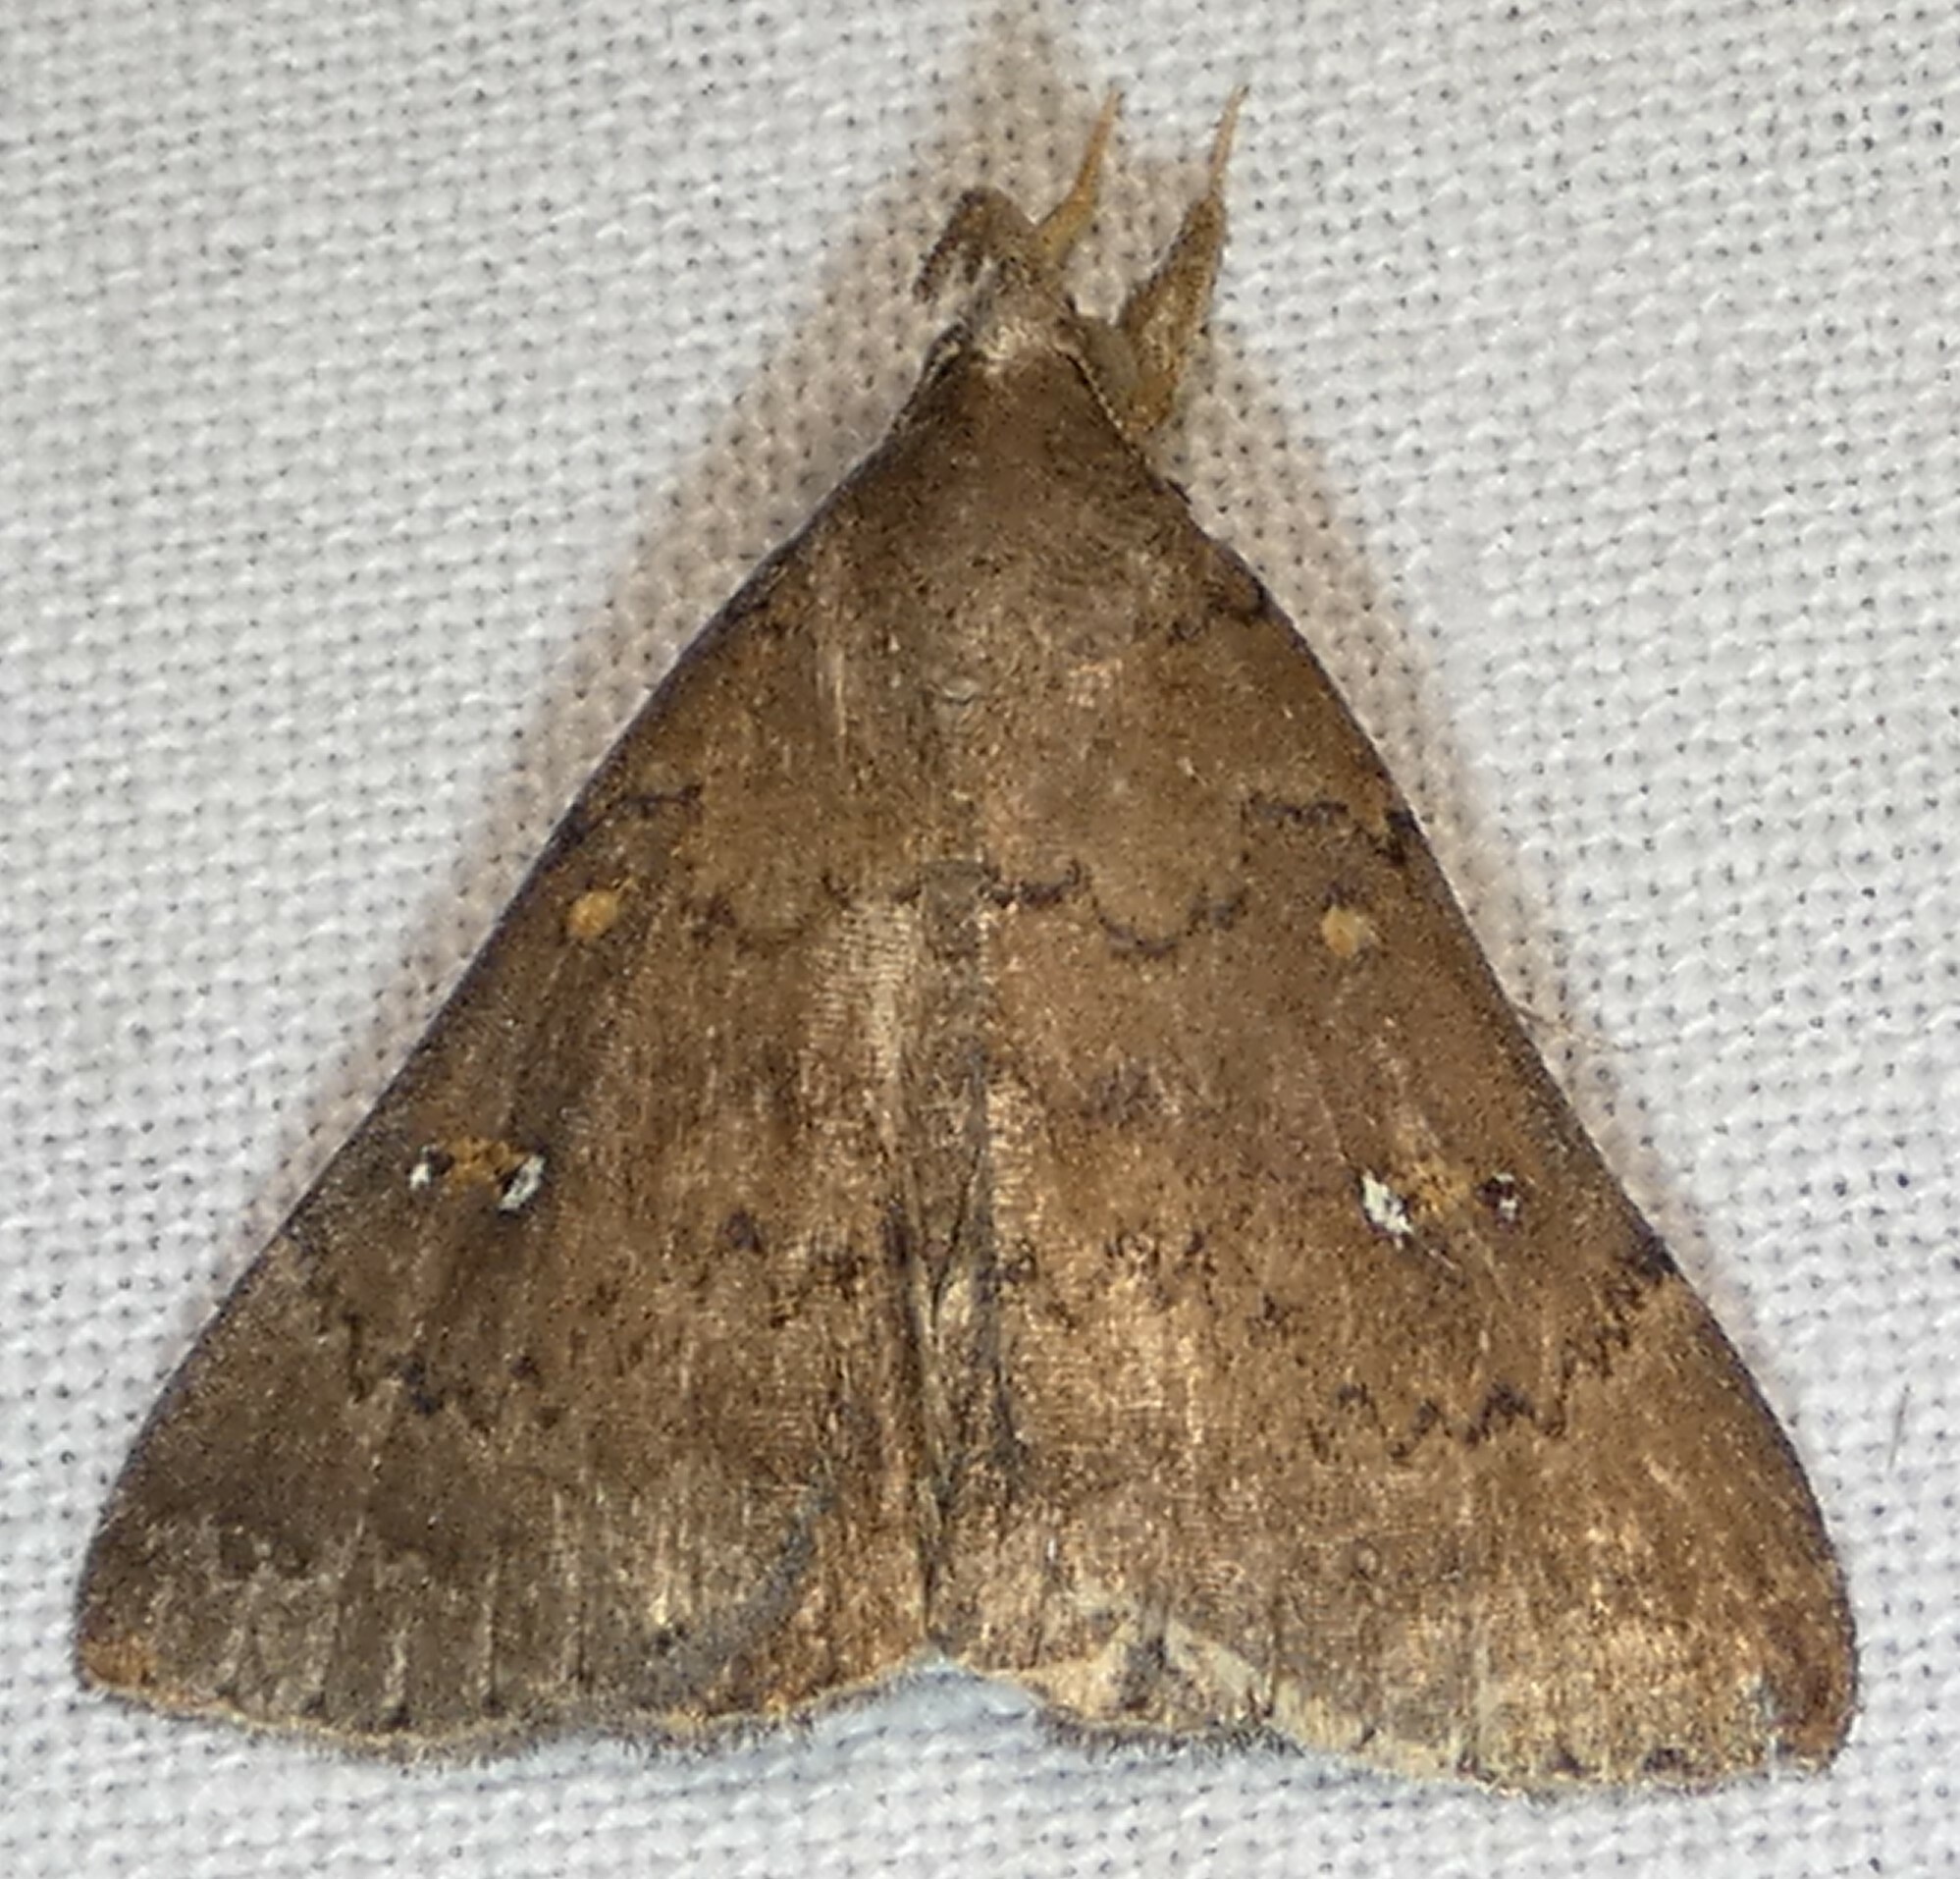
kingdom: Animalia
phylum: Arthropoda
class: Insecta
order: Lepidoptera
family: Erebidae
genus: Hypenula
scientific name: Hypenula cacuminalis
